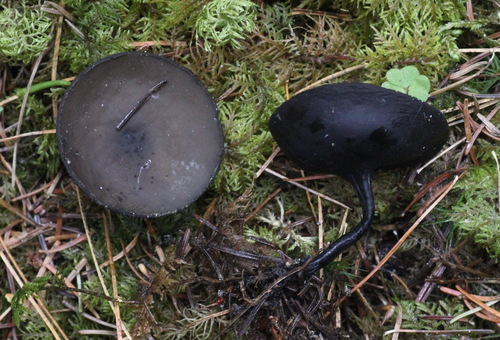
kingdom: Fungi
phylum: Ascomycota
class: Pezizomycetes
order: Pezizales
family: Sarcosomataceae
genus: Pseudoplectania
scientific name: Pseudoplectania melaena
